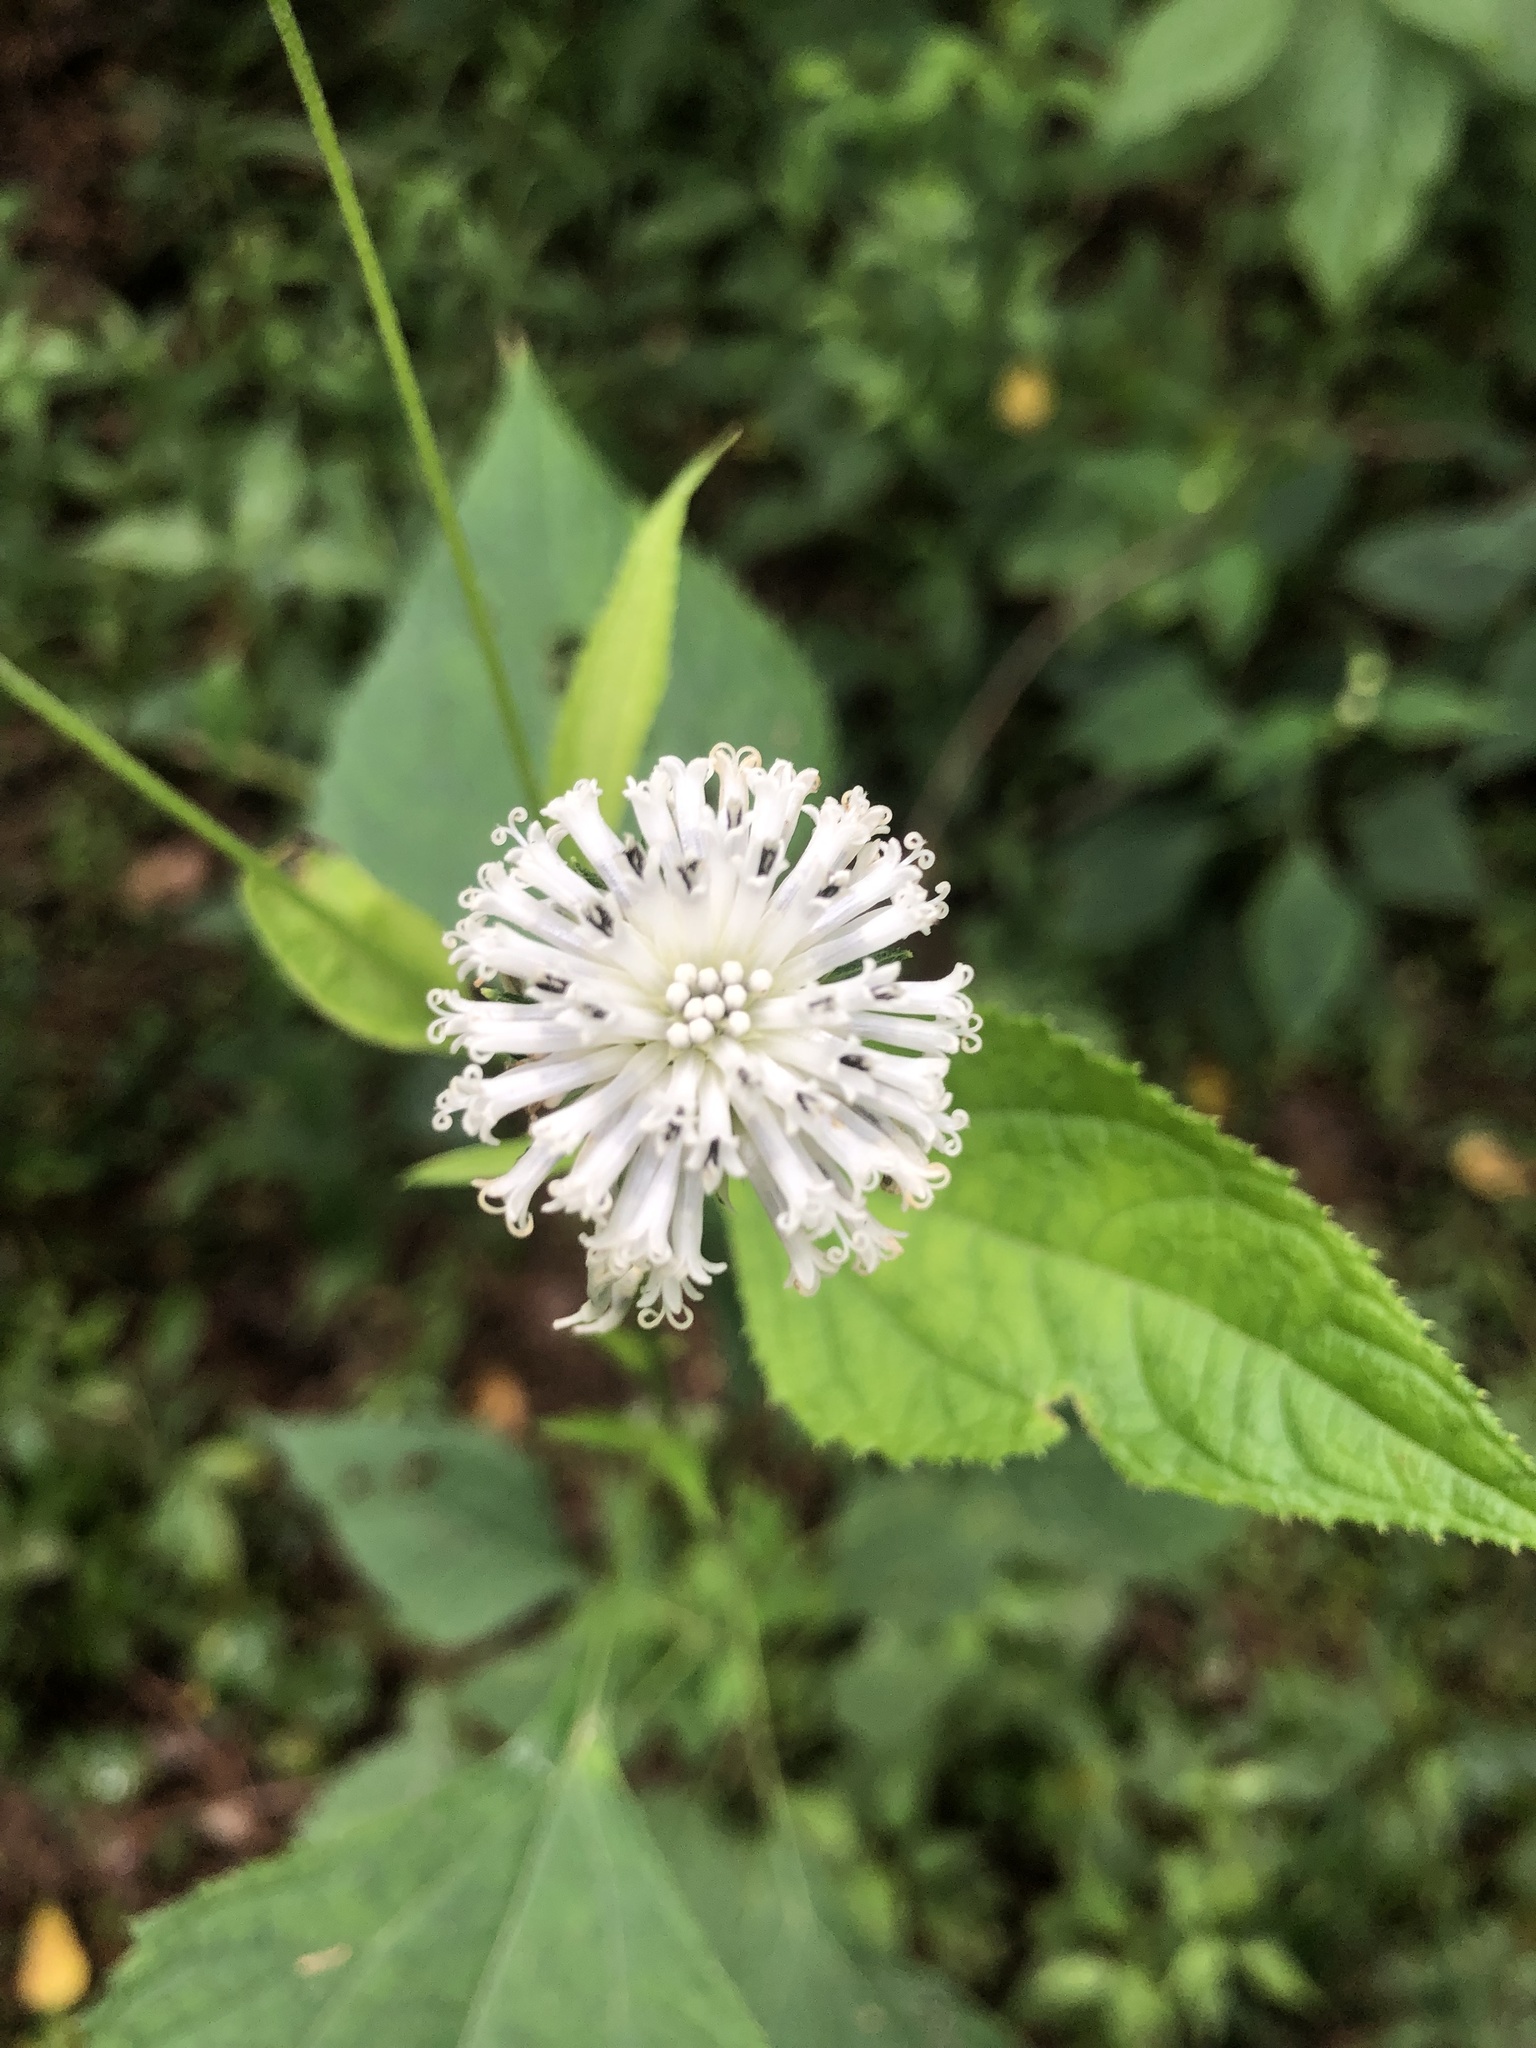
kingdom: Plantae
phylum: Tracheophyta
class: Magnoliopsida
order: Asterales
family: Asteraceae
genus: Melanthera
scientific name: Melanthera nivea
